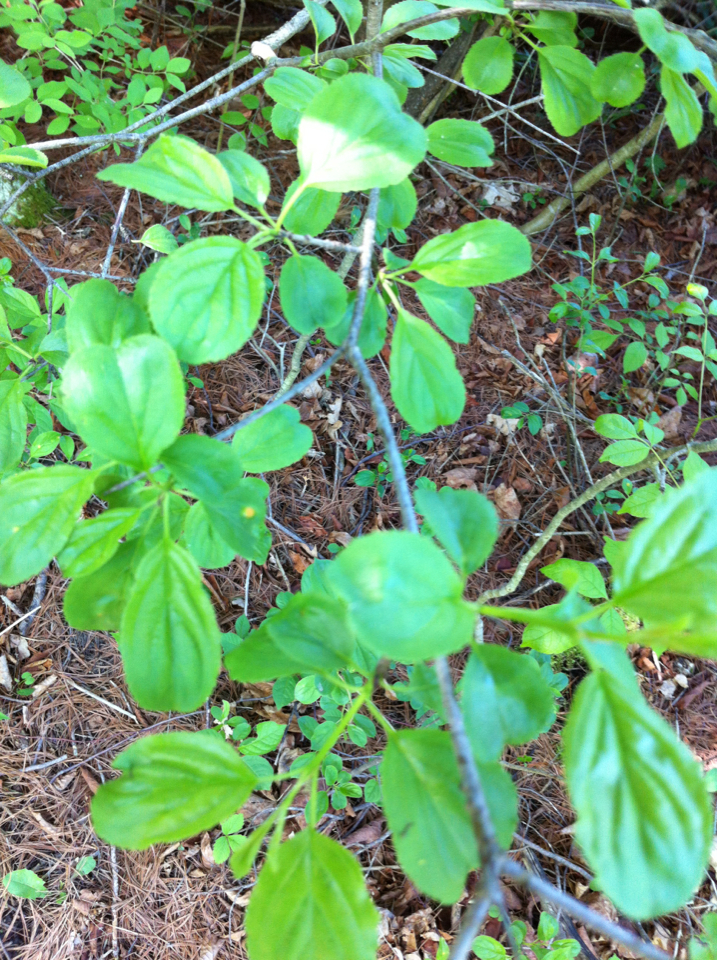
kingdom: Plantae
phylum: Tracheophyta
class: Magnoliopsida
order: Rosales
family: Rhamnaceae
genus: Rhamnus
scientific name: Rhamnus cathartica
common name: Common buckthorn
